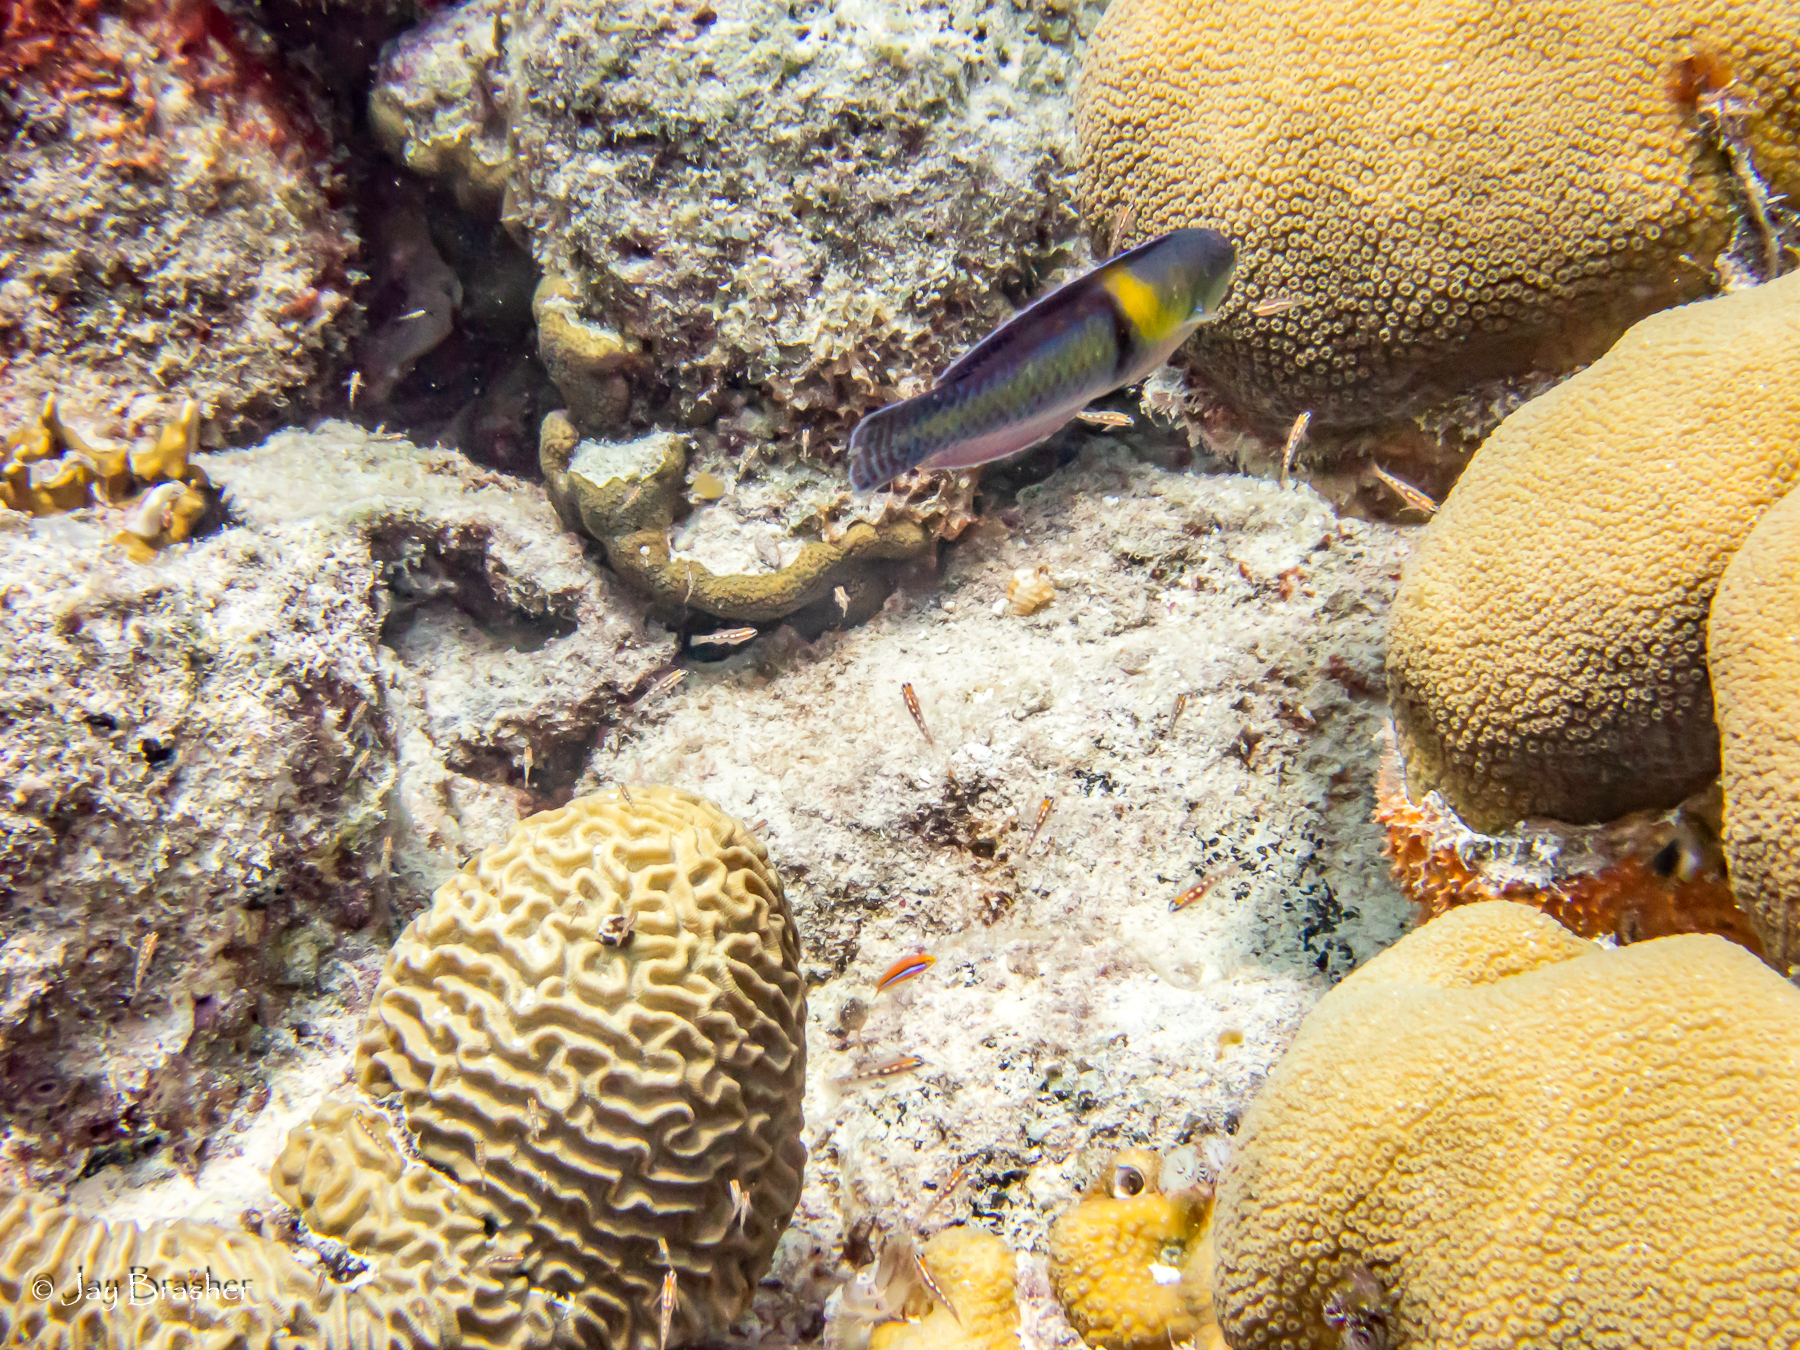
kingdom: Animalia
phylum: Cnidaria
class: Anthozoa
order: Scleractinia
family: Faviidae
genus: Pseudodiploria
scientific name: Pseudodiploria strigosa
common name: Symmetrical brain coral
